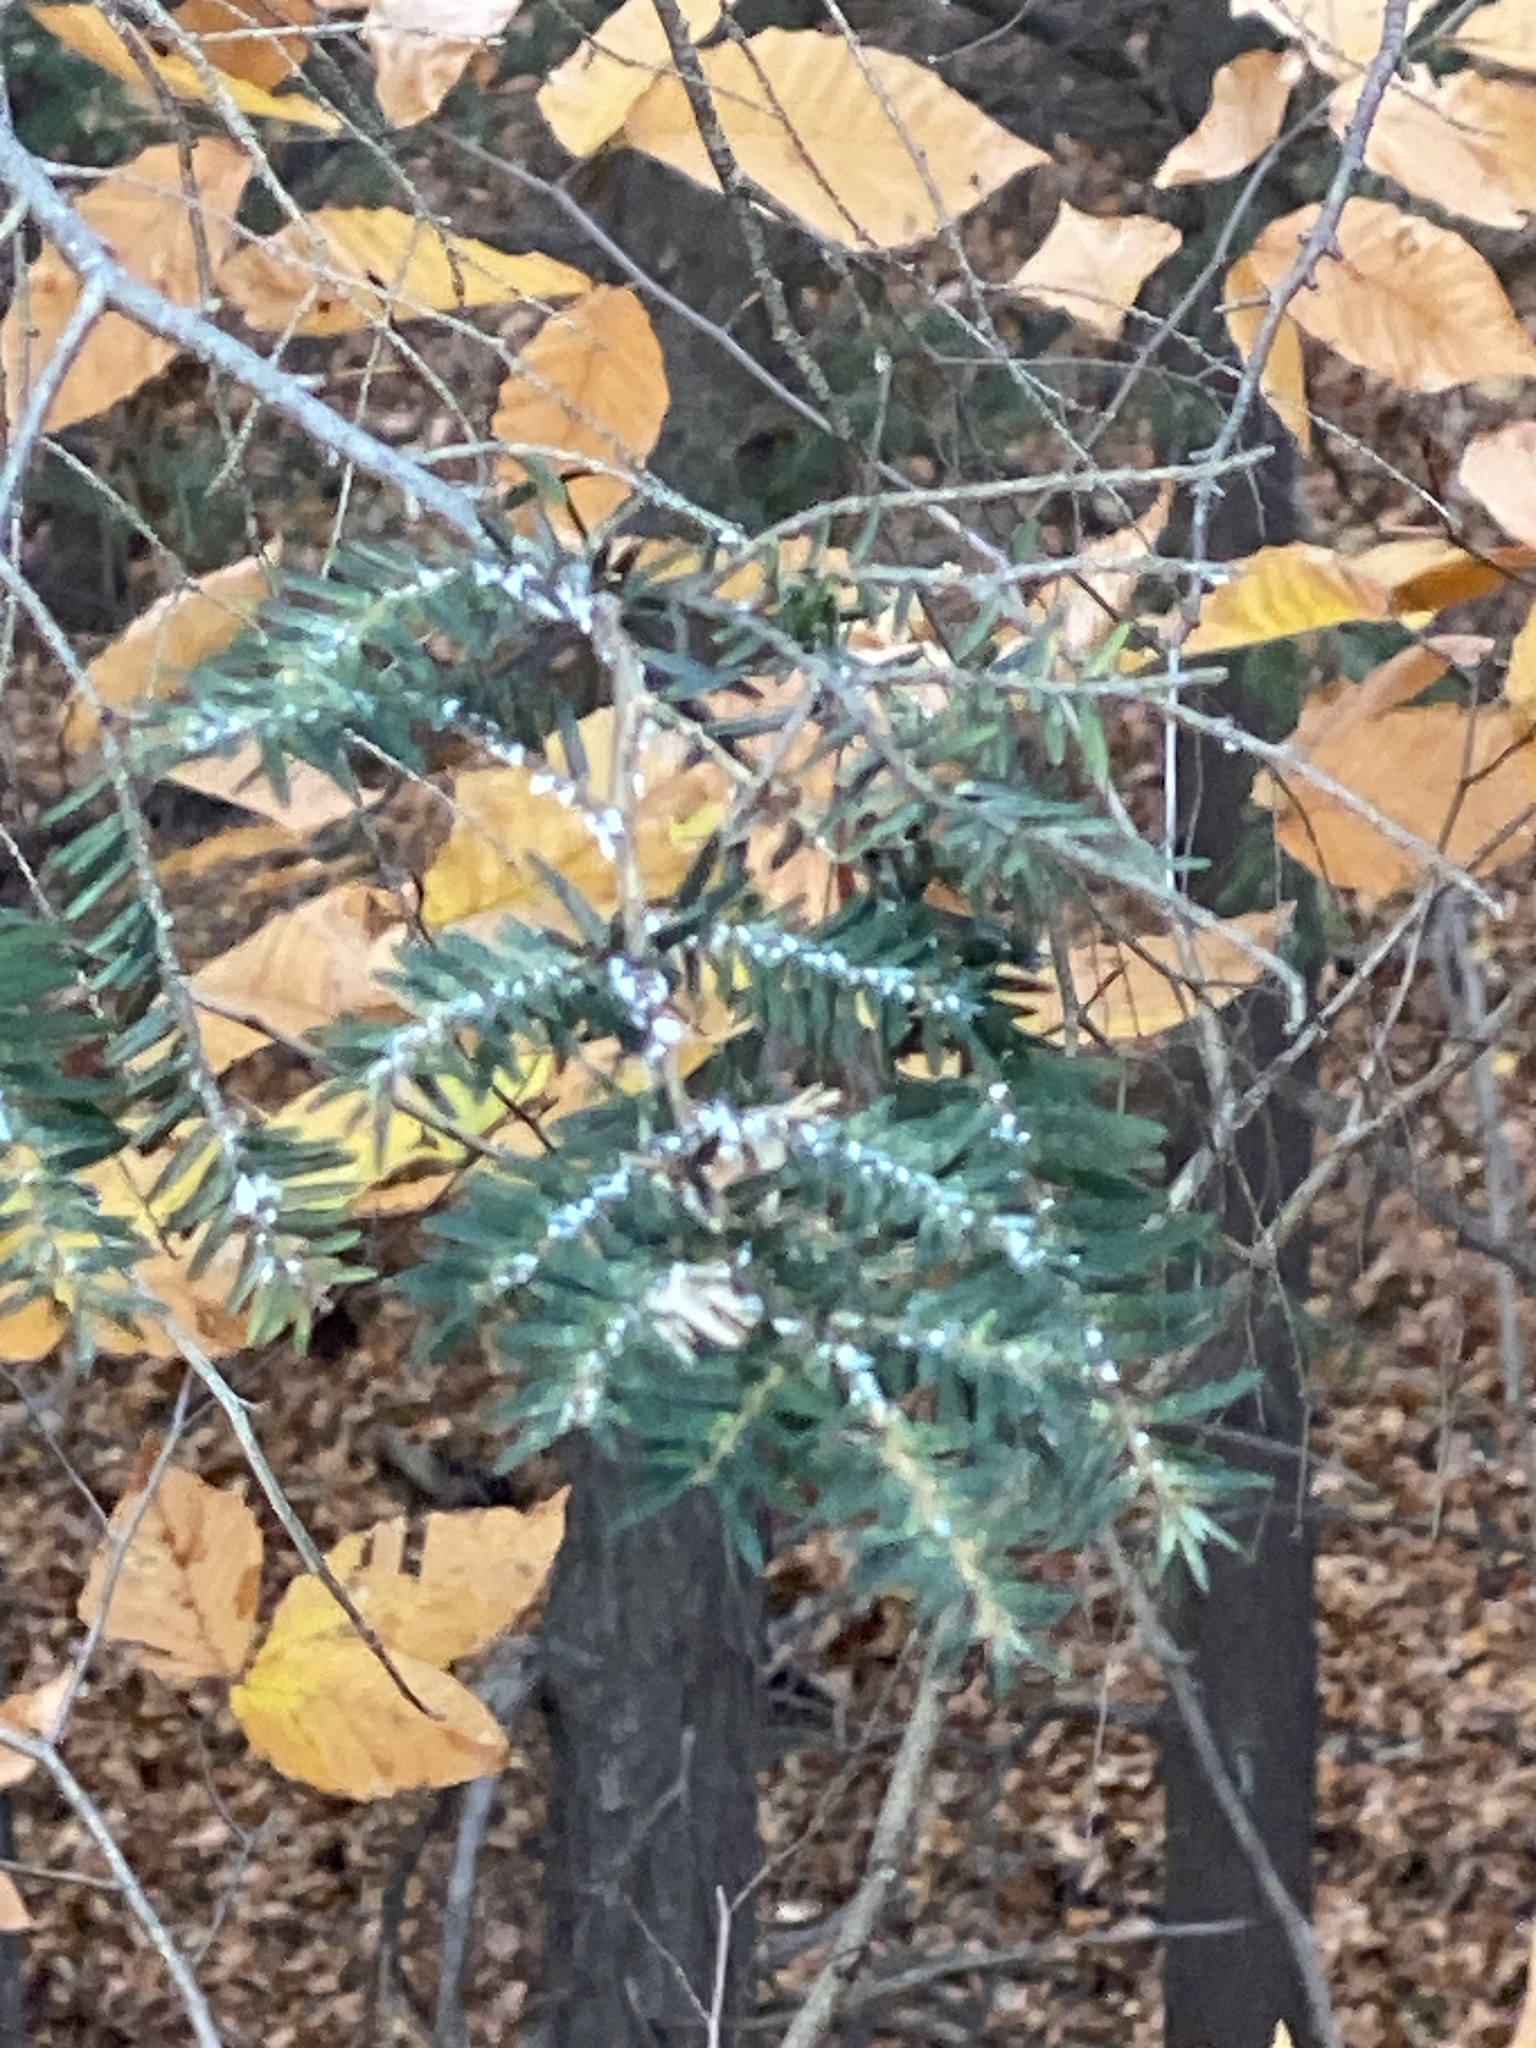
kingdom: Animalia
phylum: Arthropoda
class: Insecta
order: Hemiptera
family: Adelgidae
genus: Adelges
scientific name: Adelges tsugae
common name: Hemlock woolly adelgid
